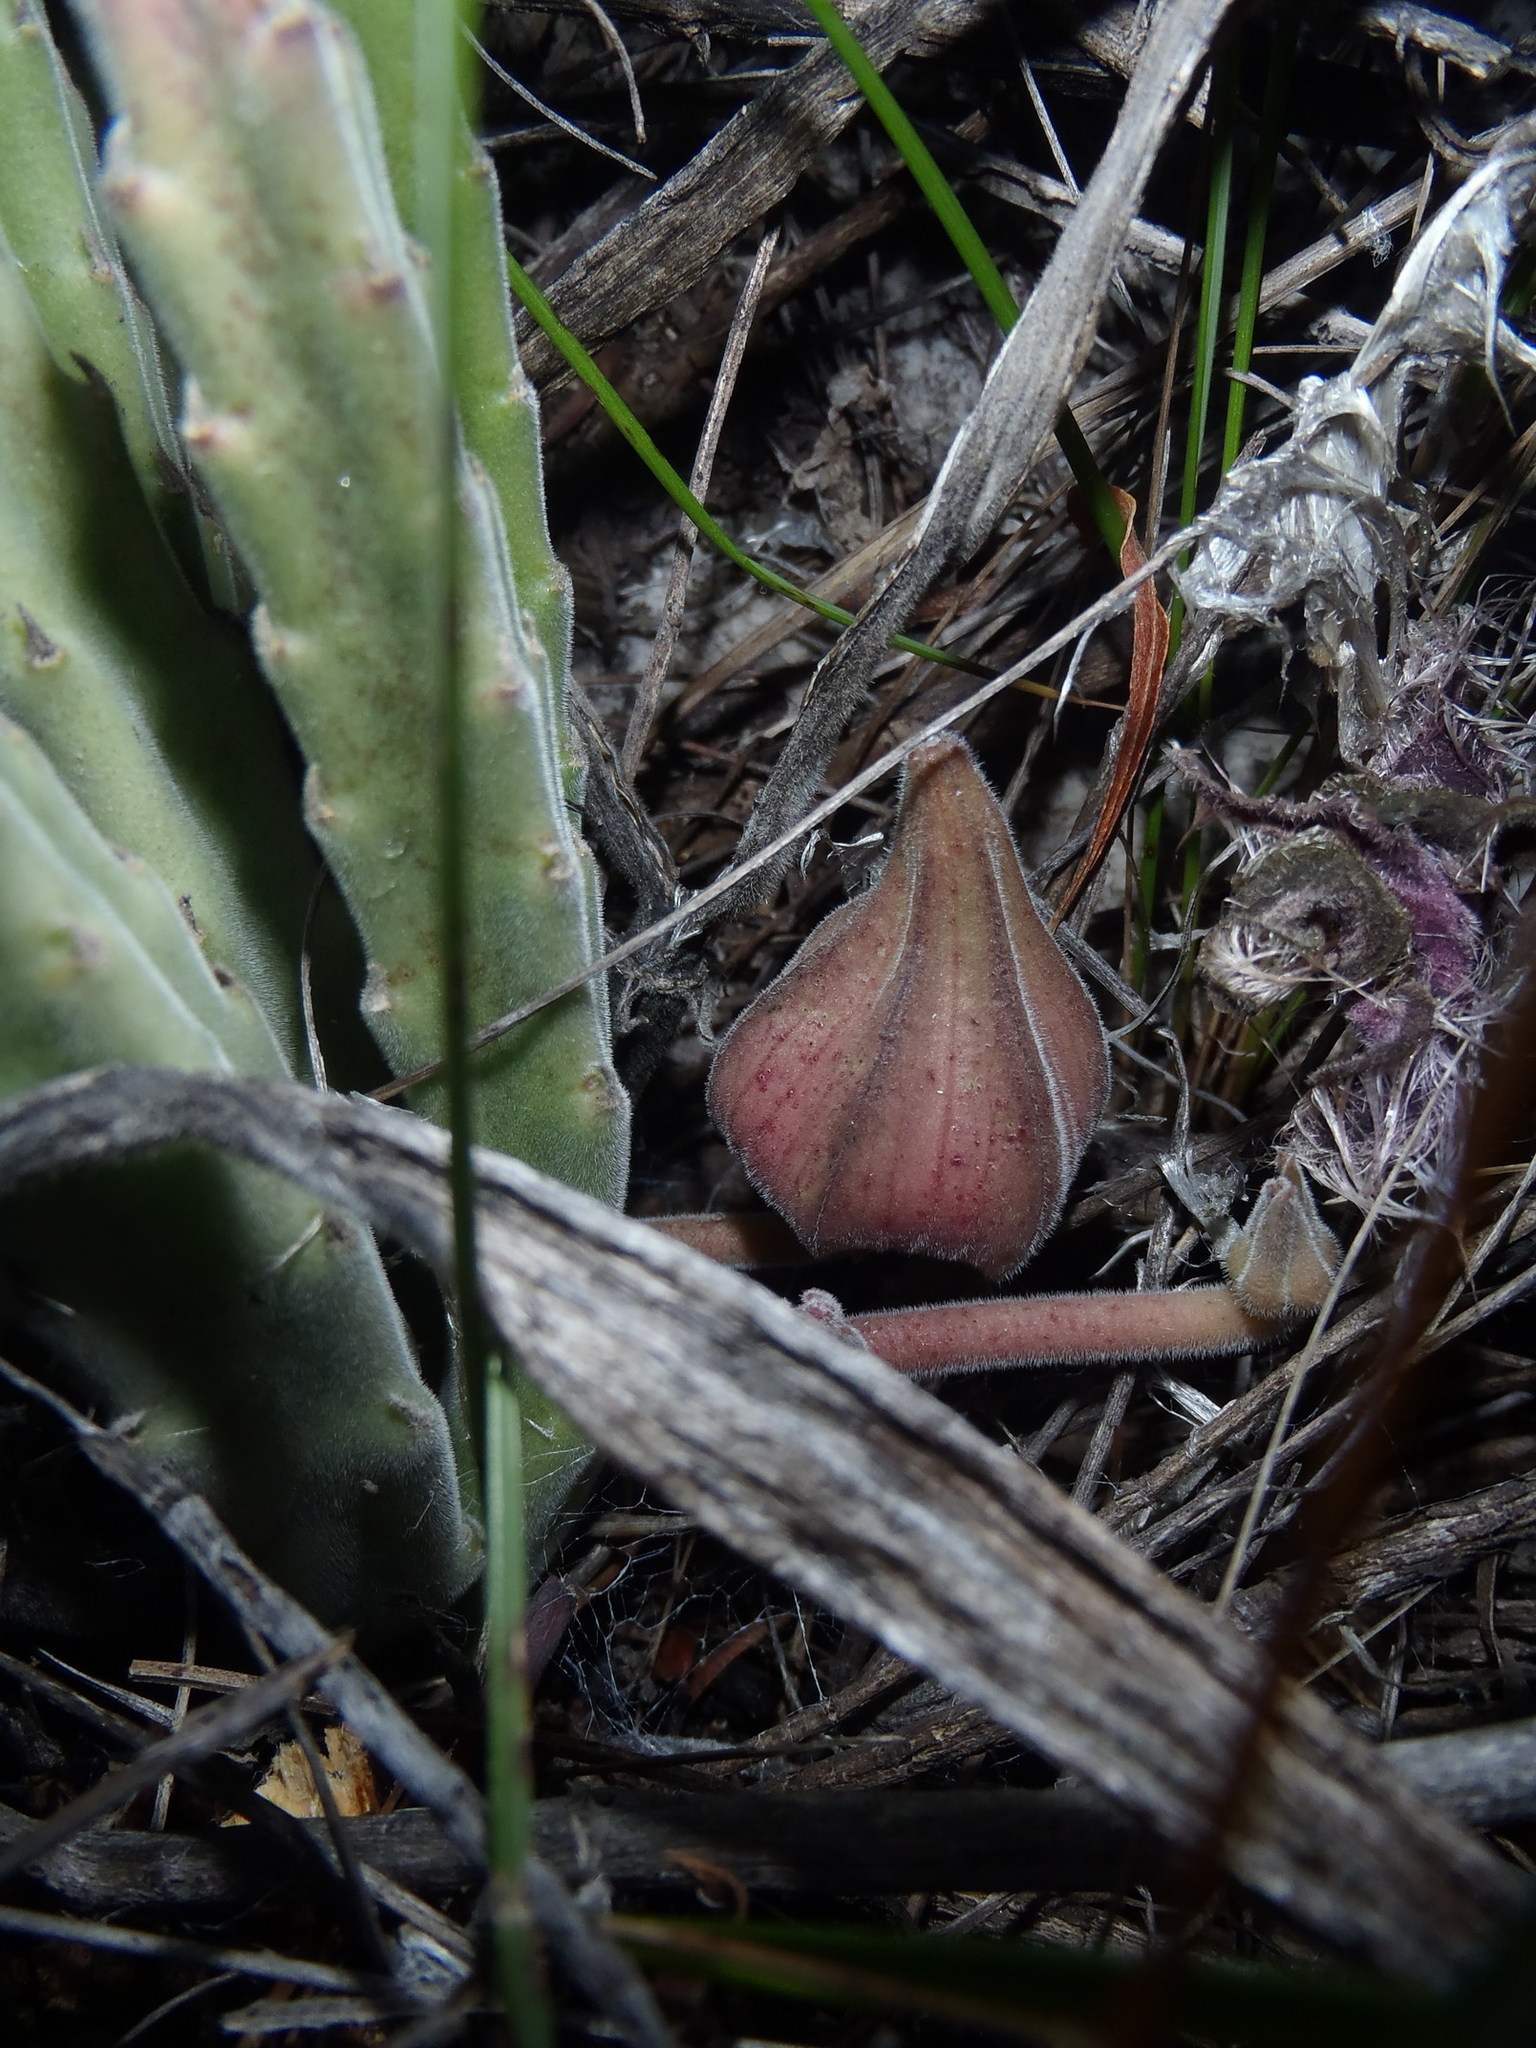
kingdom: Plantae
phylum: Tracheophyta
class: Magnoliopsida
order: Gentianales
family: Apocynaceae
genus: Ceropegia
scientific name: Ceropegia pulvinata
